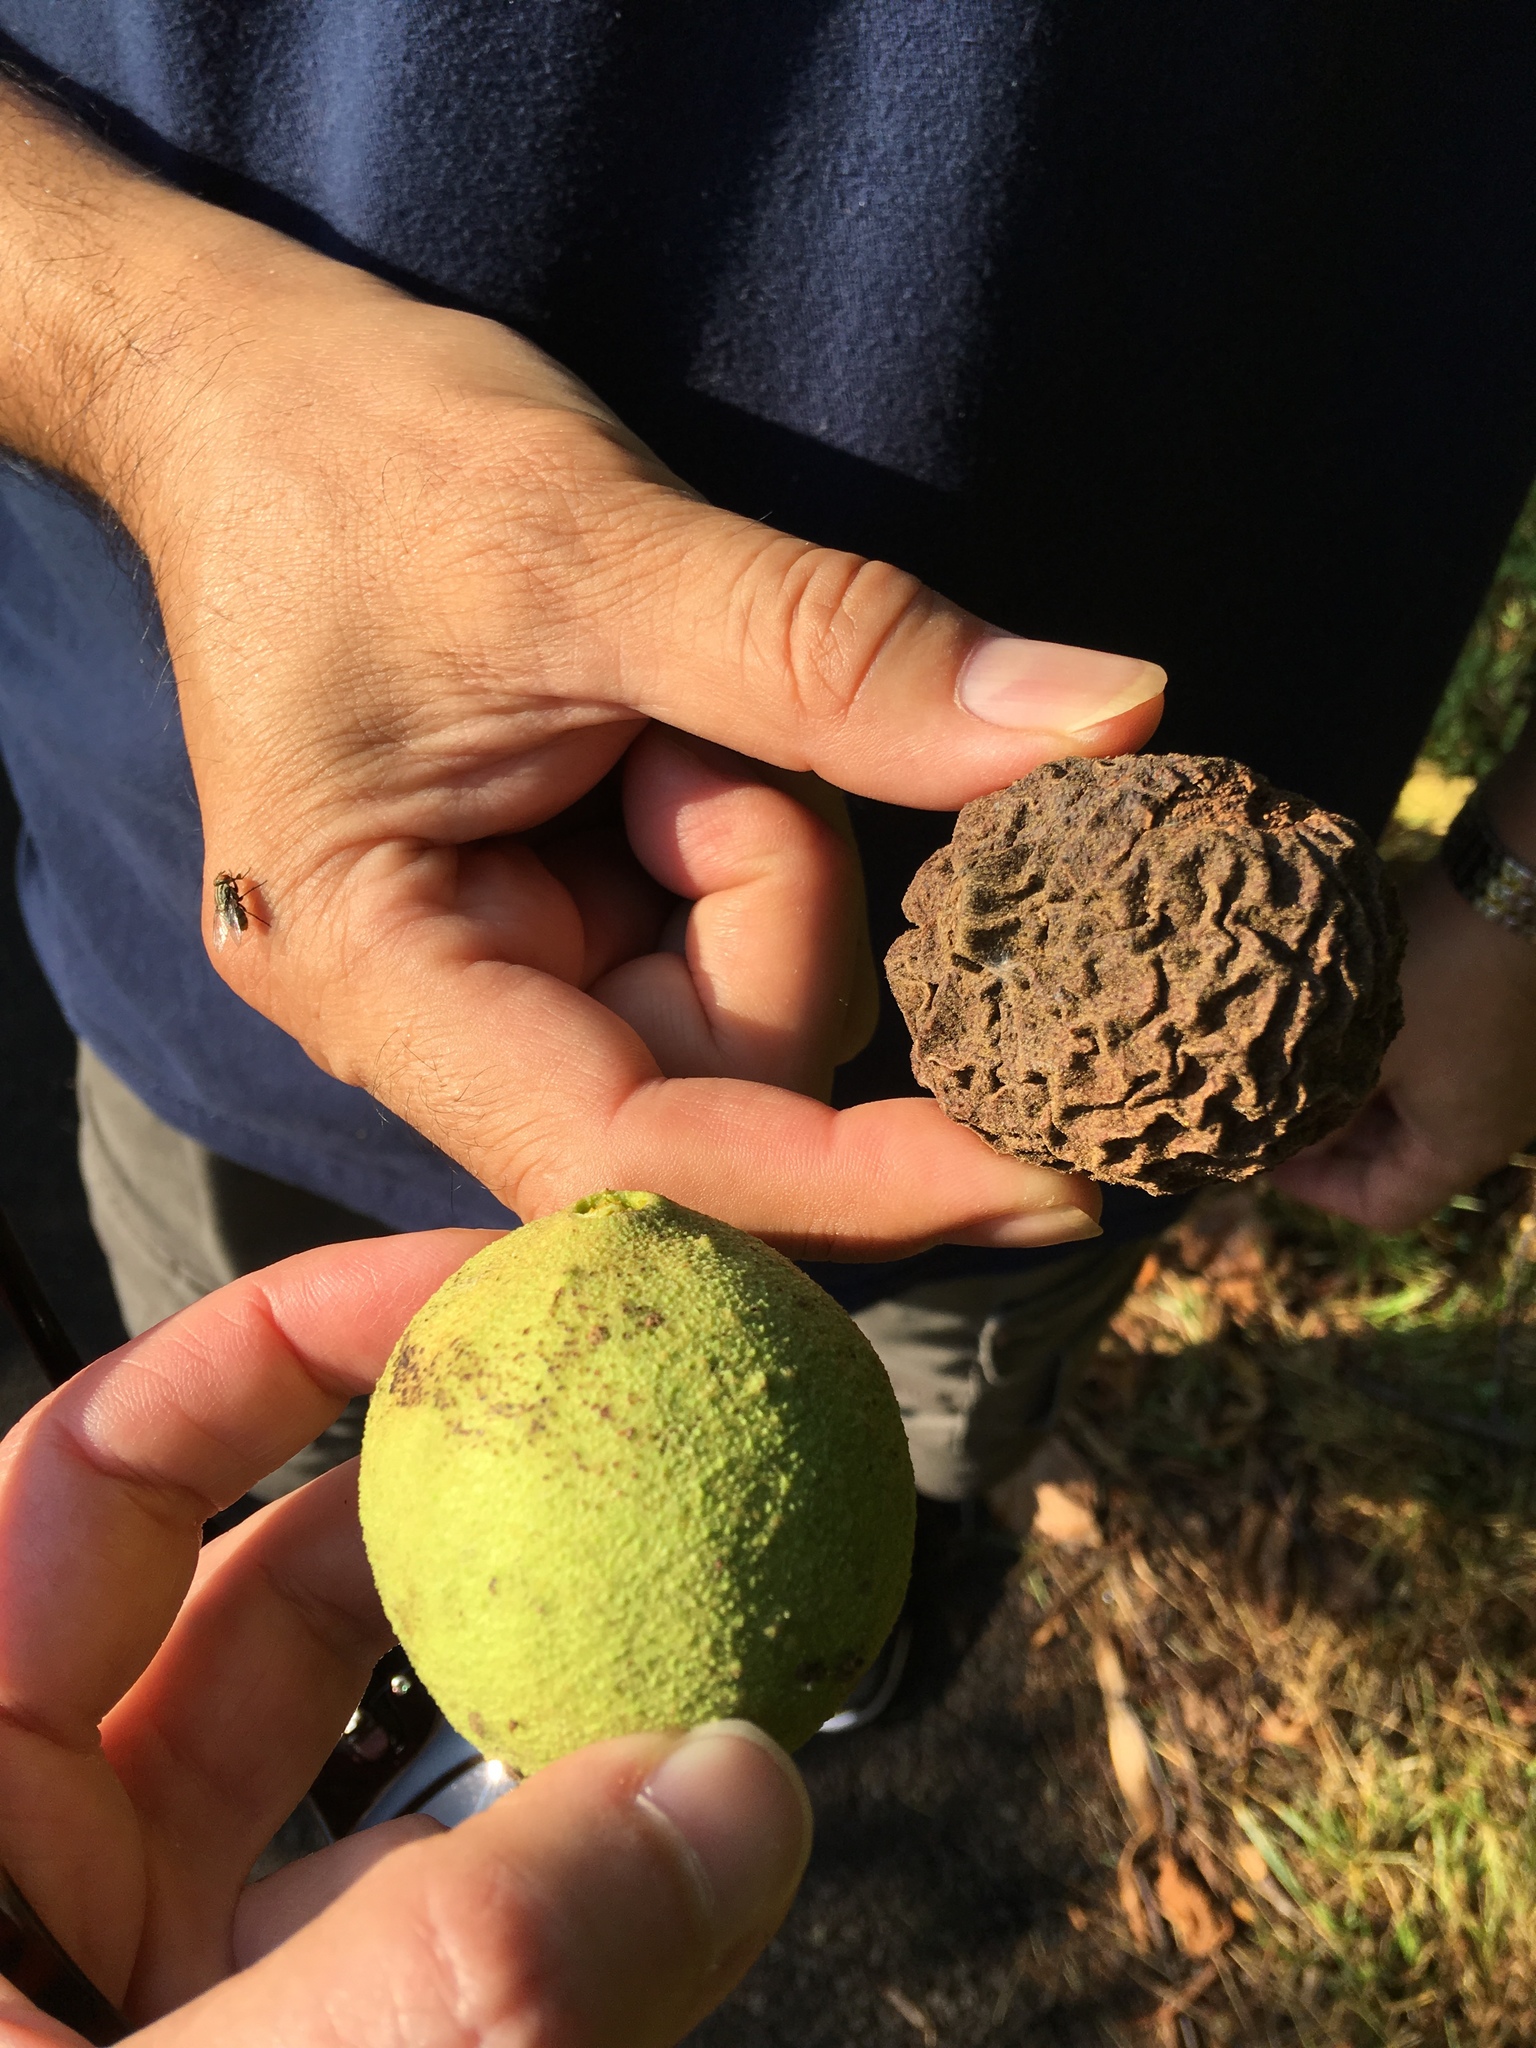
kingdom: Plantae
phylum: Tracheophyta
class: Magnoliopsida
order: Fagales
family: Juglandaceae
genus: Juglans
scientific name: Juglans nigra
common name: Black walnut
